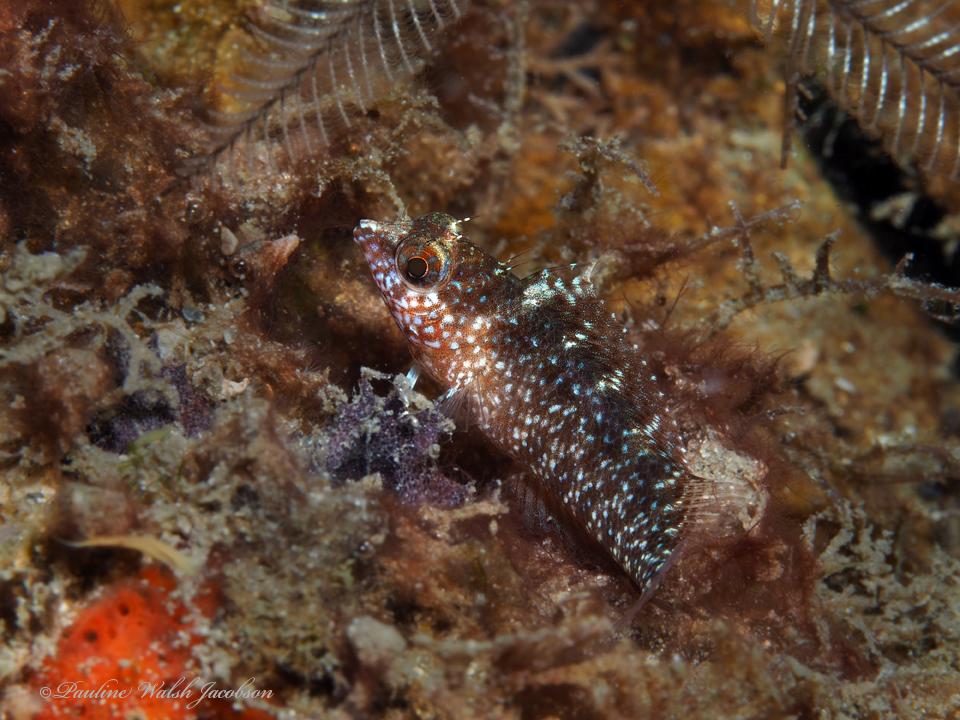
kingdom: Animalia
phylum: Chordata
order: Perciformes
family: Labrisomidae
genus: Malacoctenus
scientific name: Malacoctenus macropus
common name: Rosy blenny
